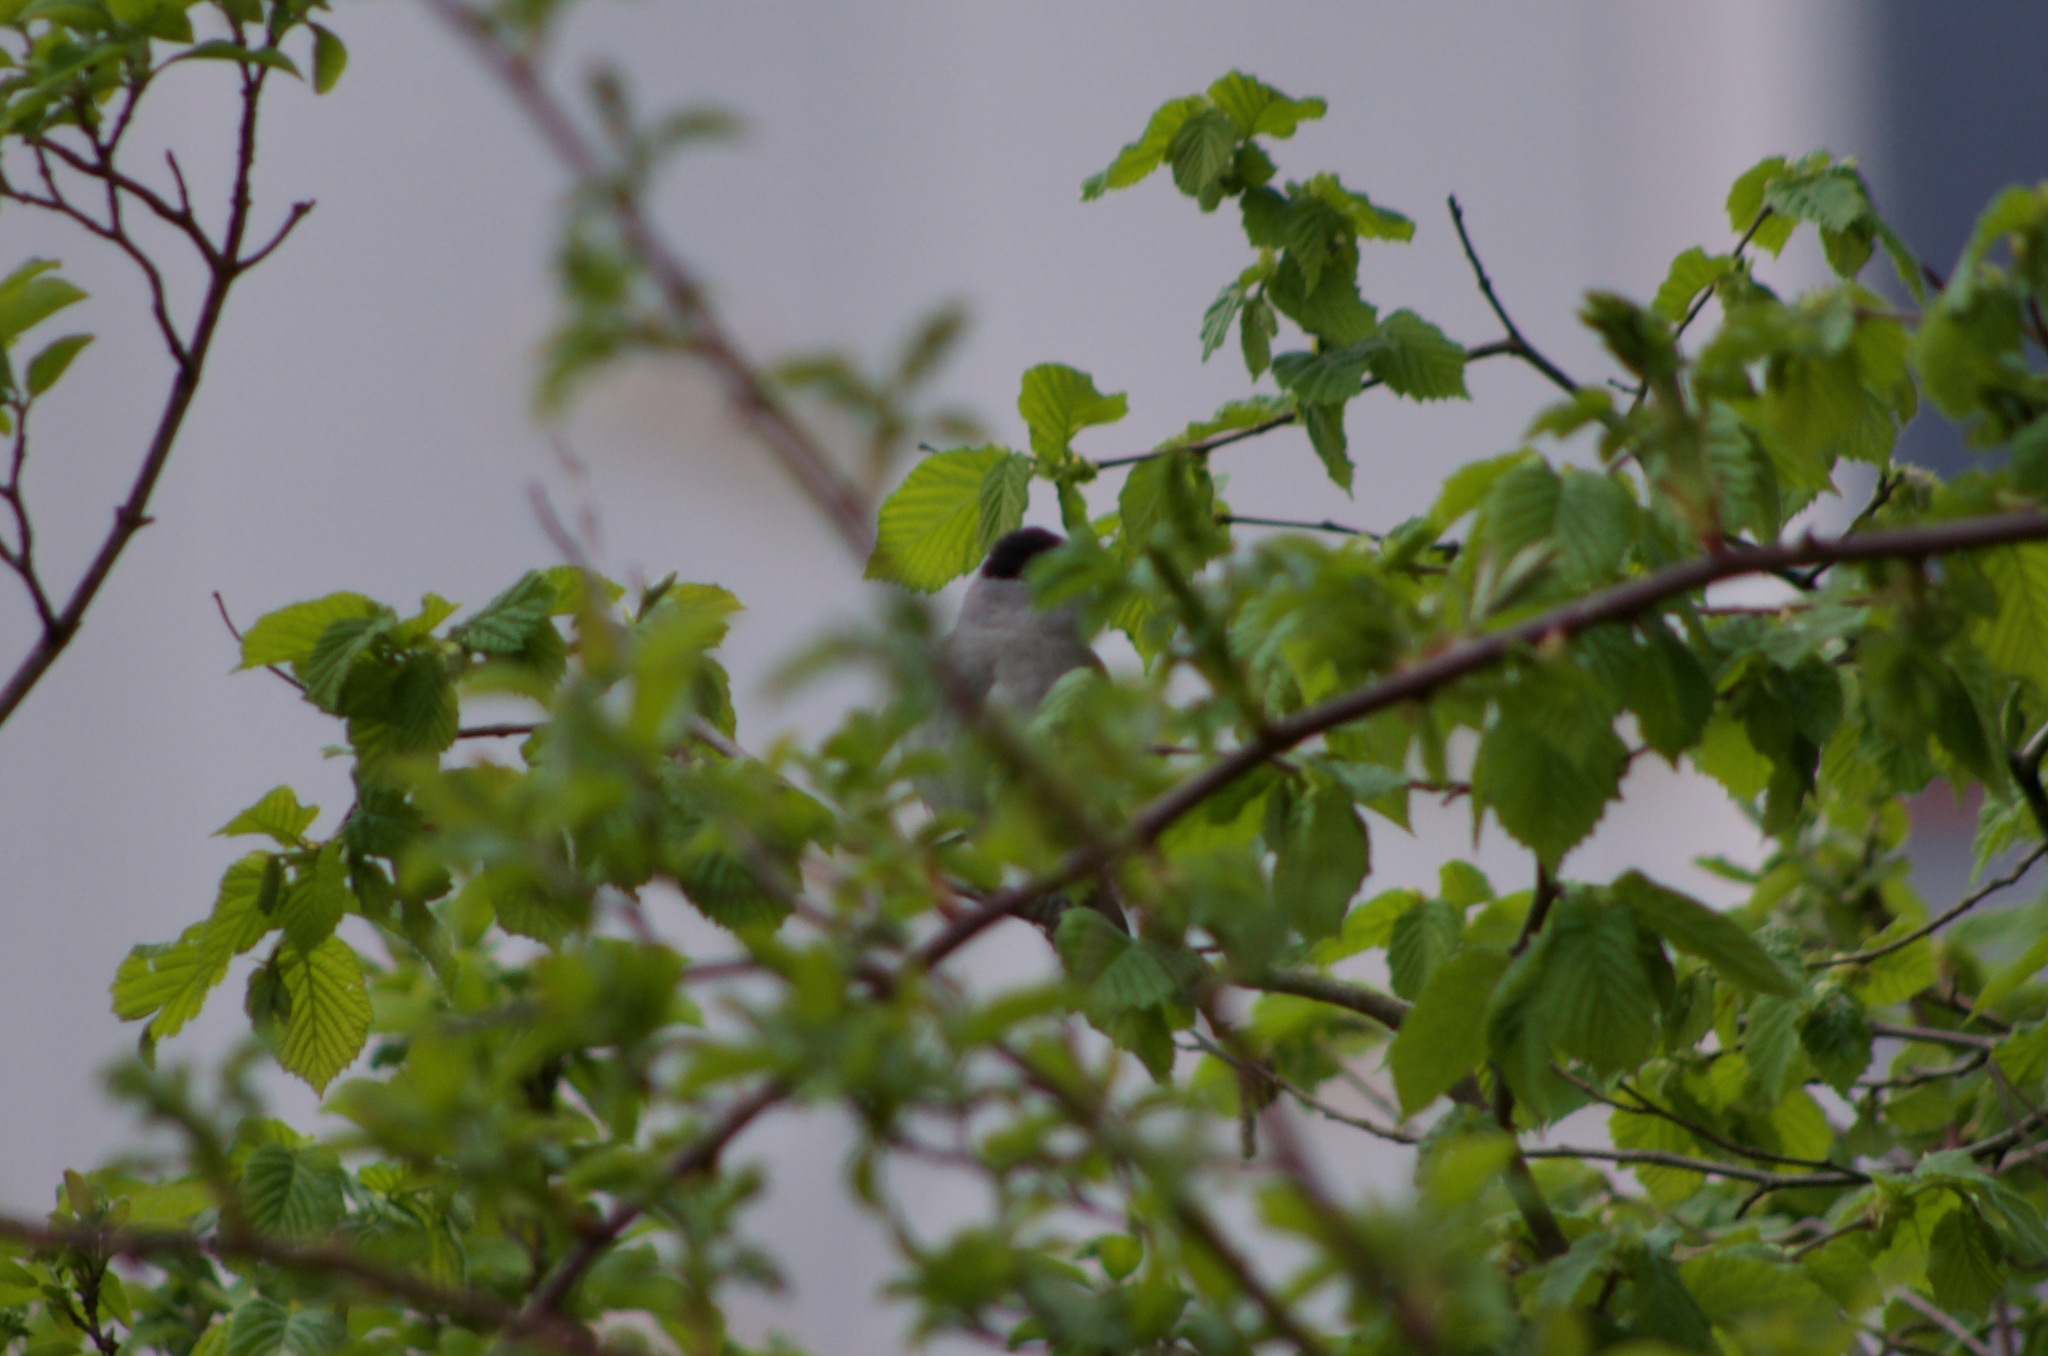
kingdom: Animalia
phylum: Chordata
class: Aves
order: Passeriformes
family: Sylviidae
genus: Sylvia
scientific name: Sylvia atricapilla
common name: Eurasian blackcap
